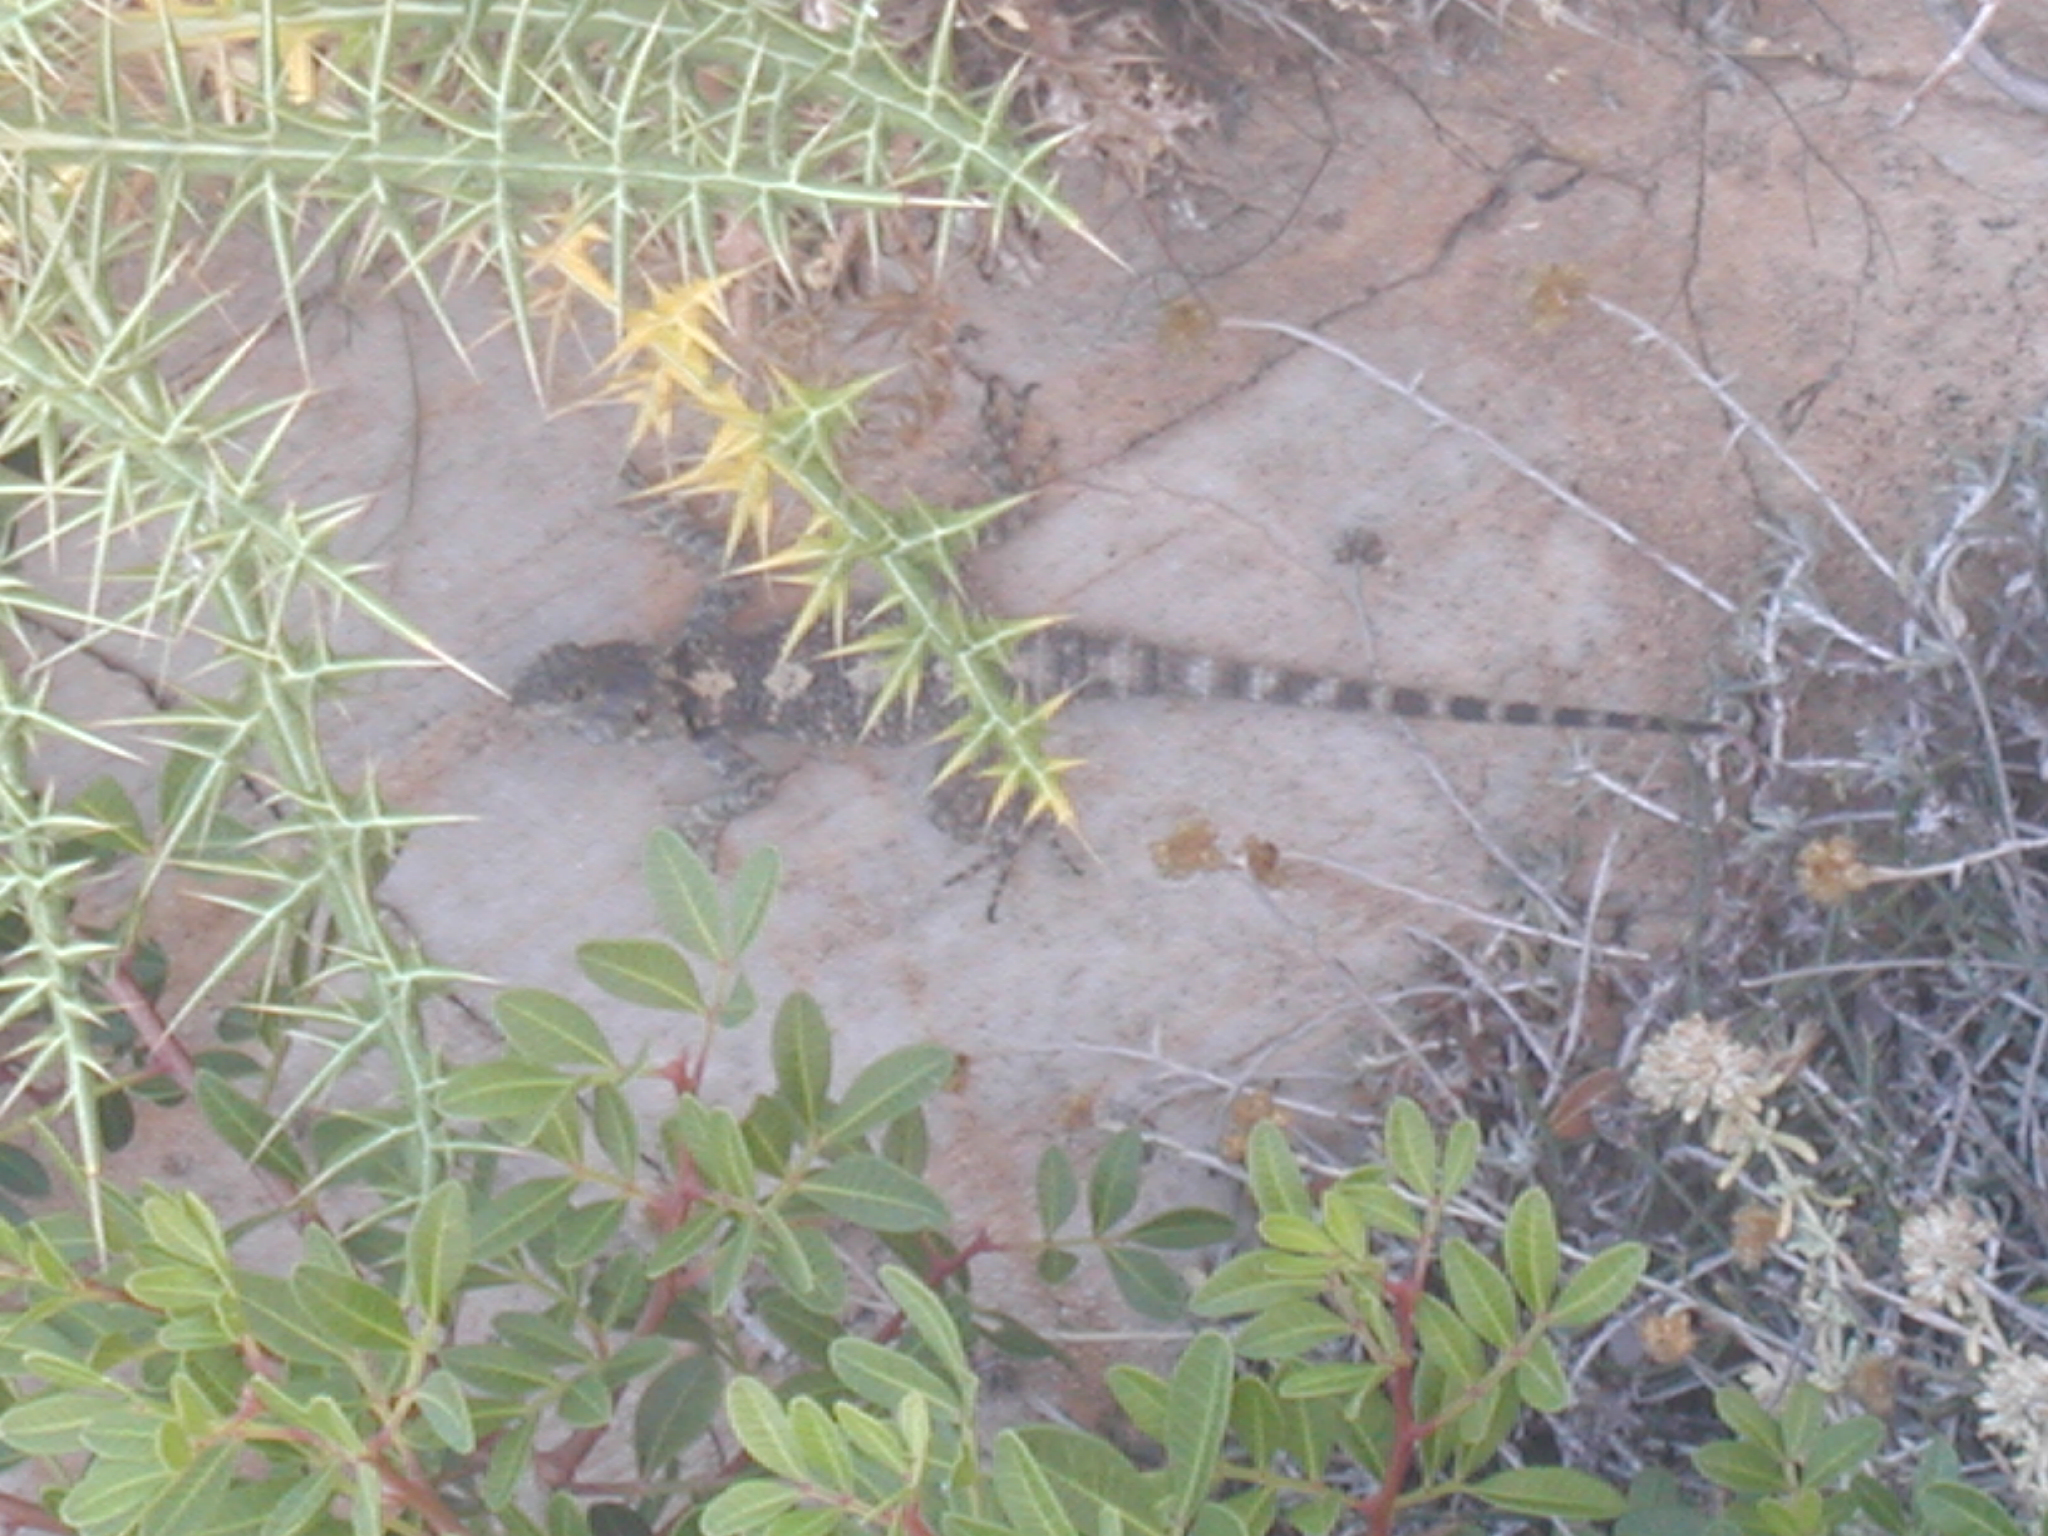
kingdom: Animalia
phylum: Chordata
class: Squamata
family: Agamidae
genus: Stellagama
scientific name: Stellagama stellio
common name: Starred agama
